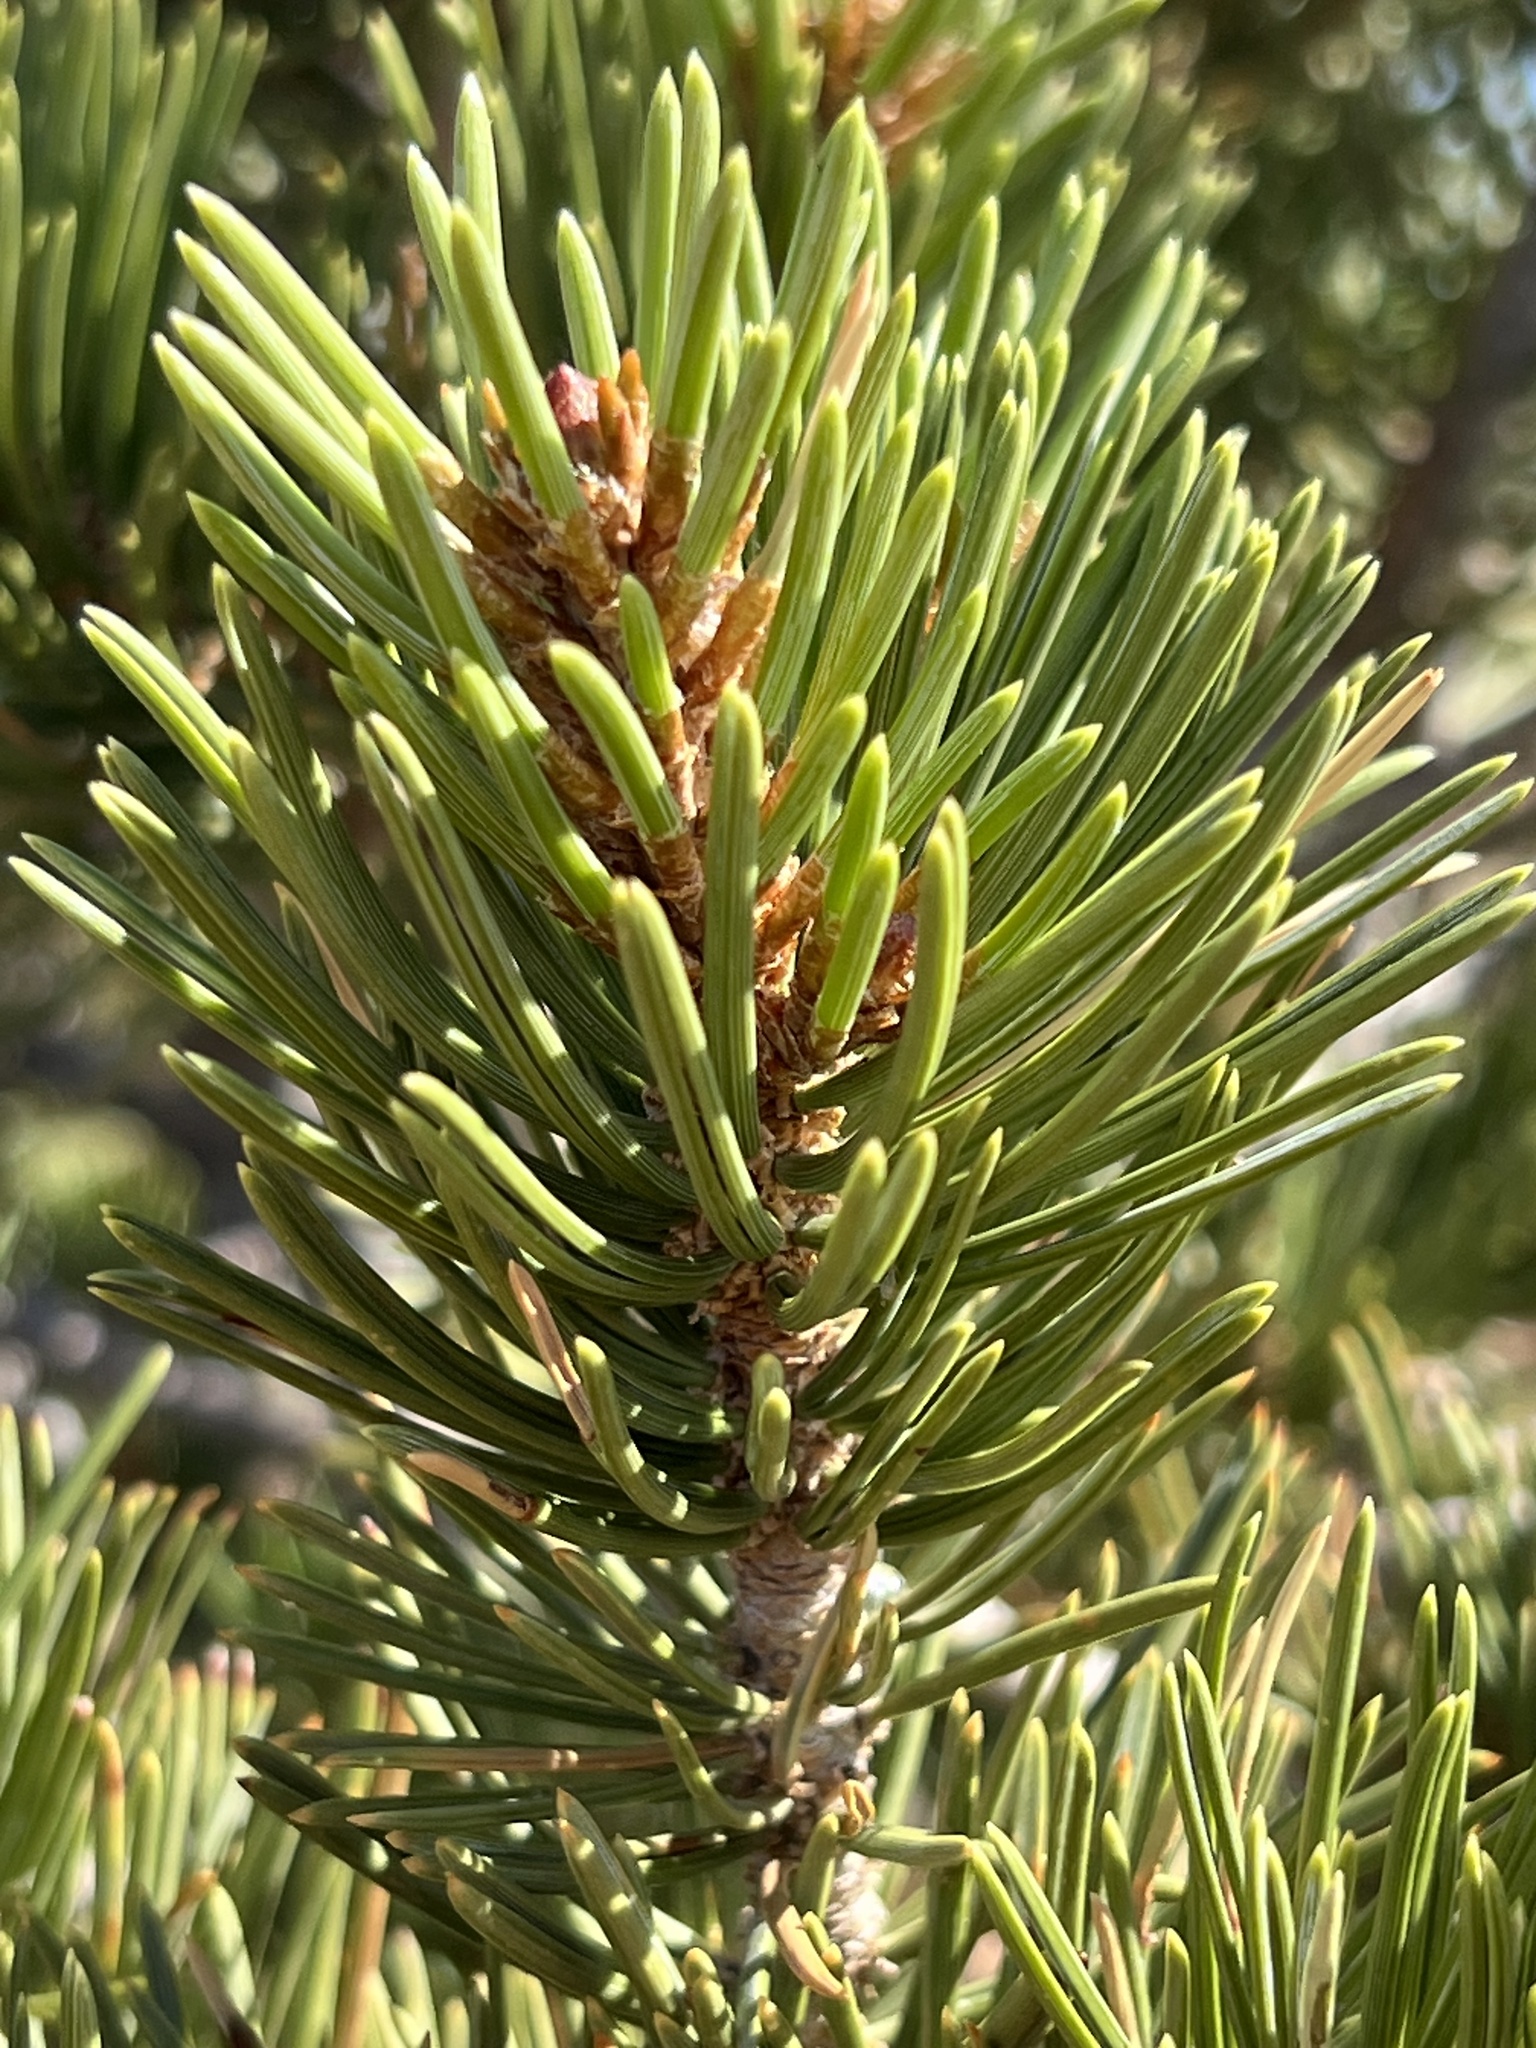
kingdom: Plantae
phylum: Tracheophyta
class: Pinopsida
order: Pinales
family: Pinaceae
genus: Pinus
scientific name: Pinus edulis
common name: Colorado pinyon
